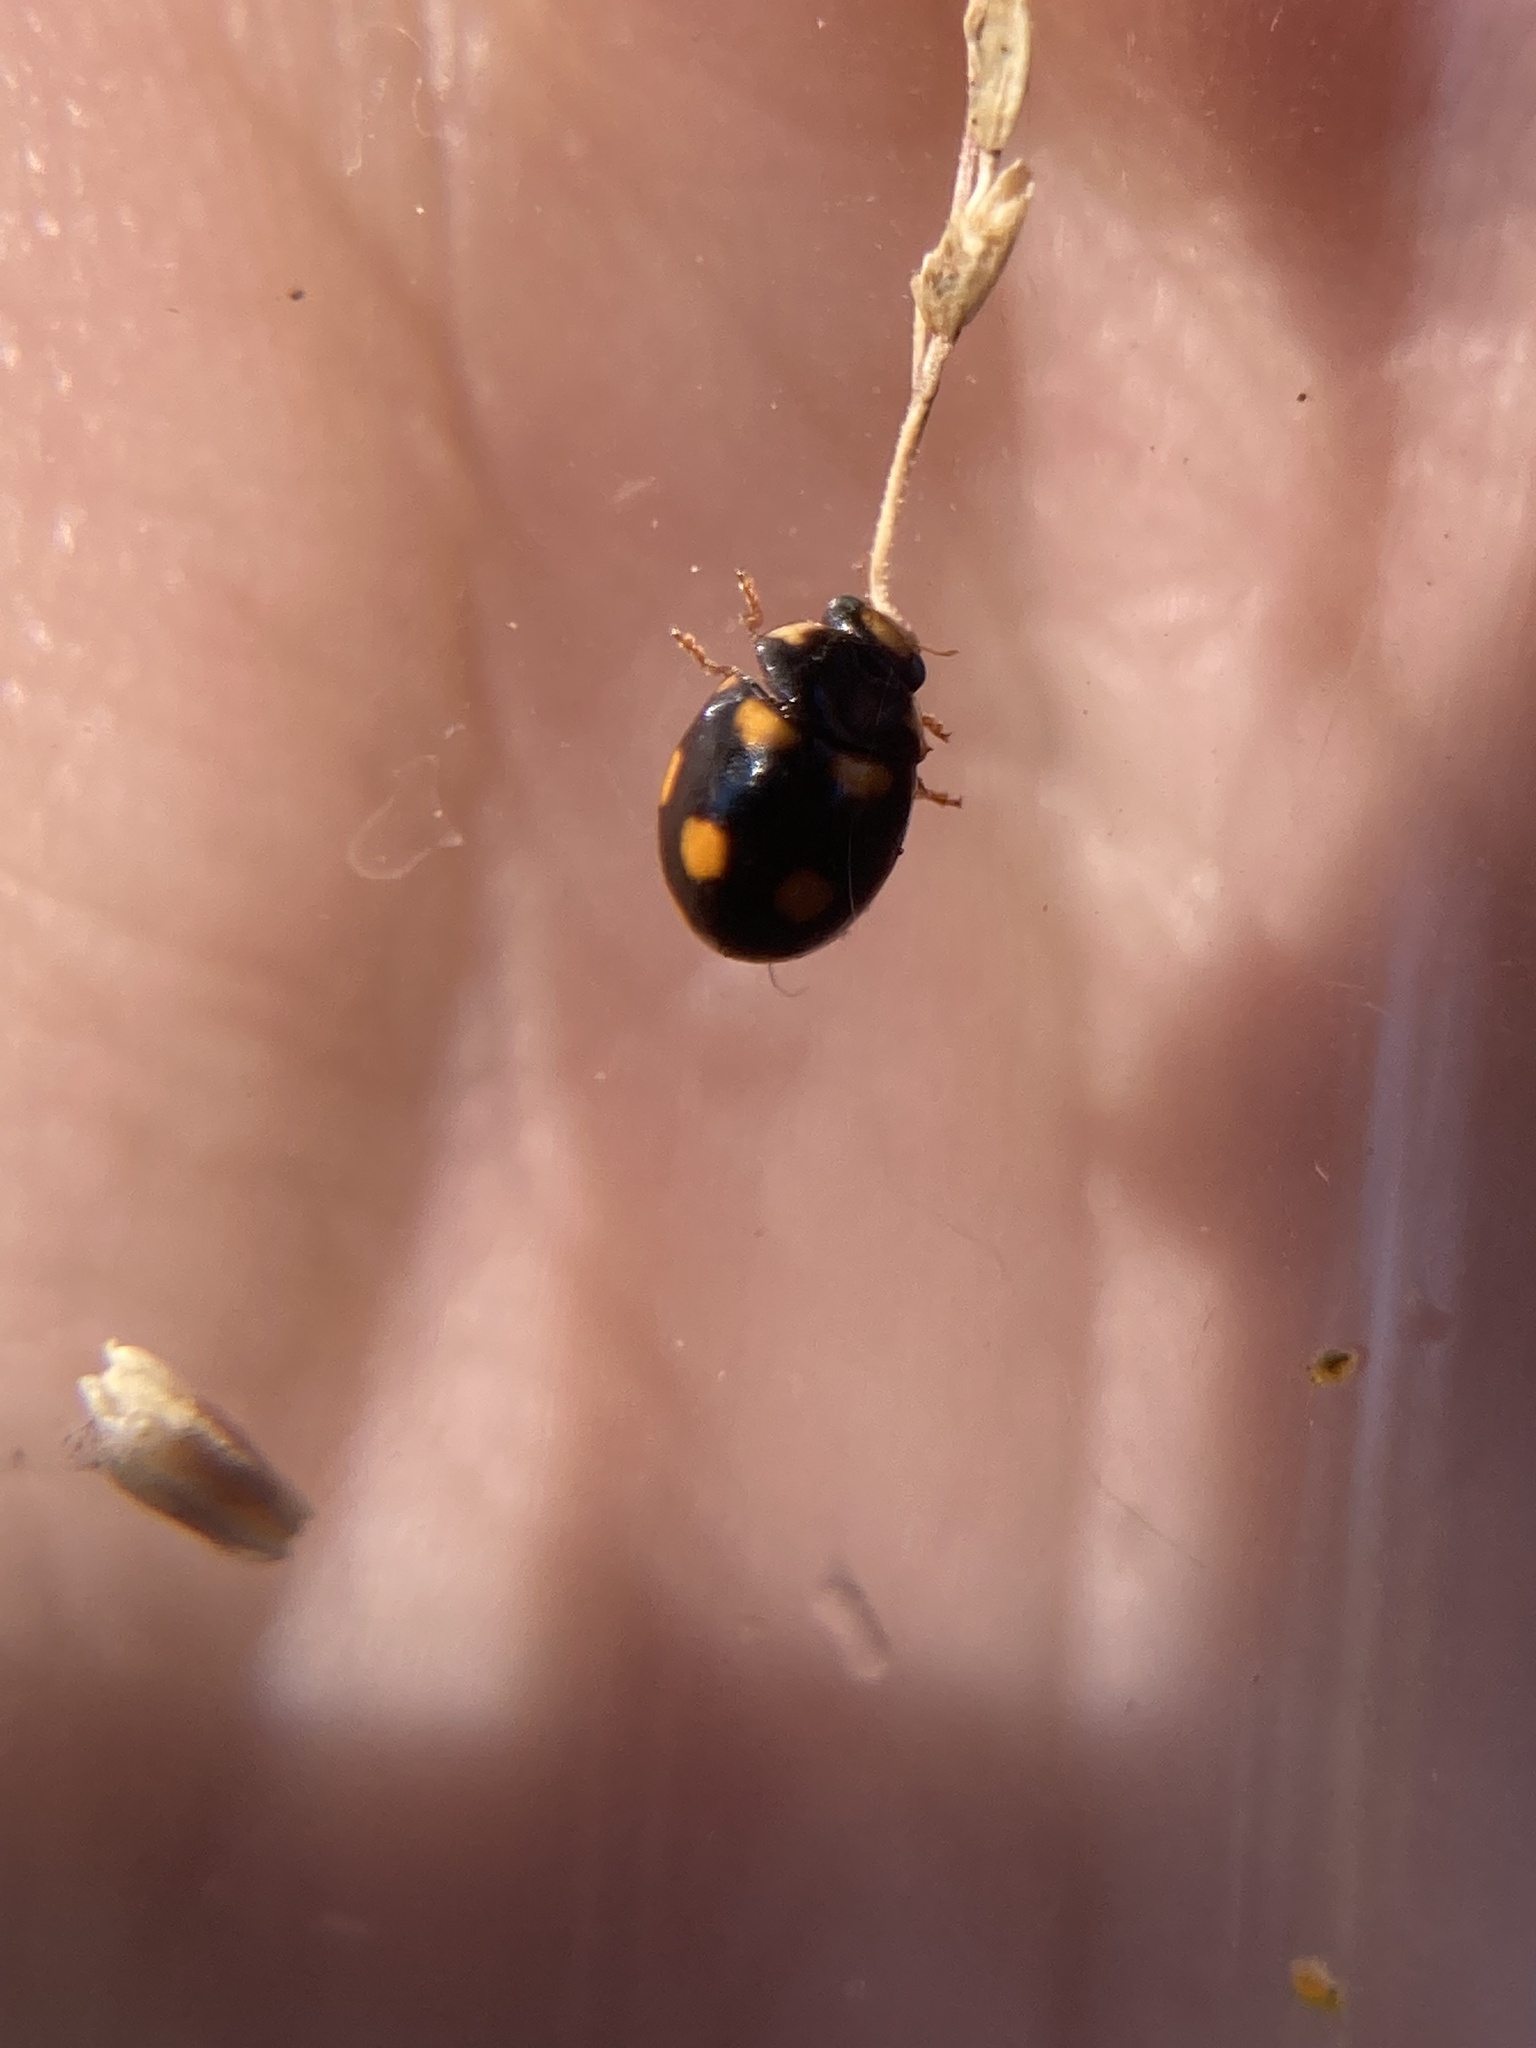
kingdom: Animalia
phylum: Arthropoda
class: Insecta
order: Coleoptera
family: Coccinellidae
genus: Brachiacantha
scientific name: Brachiacantha ursina
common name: Ursine spurleg lady beetle
